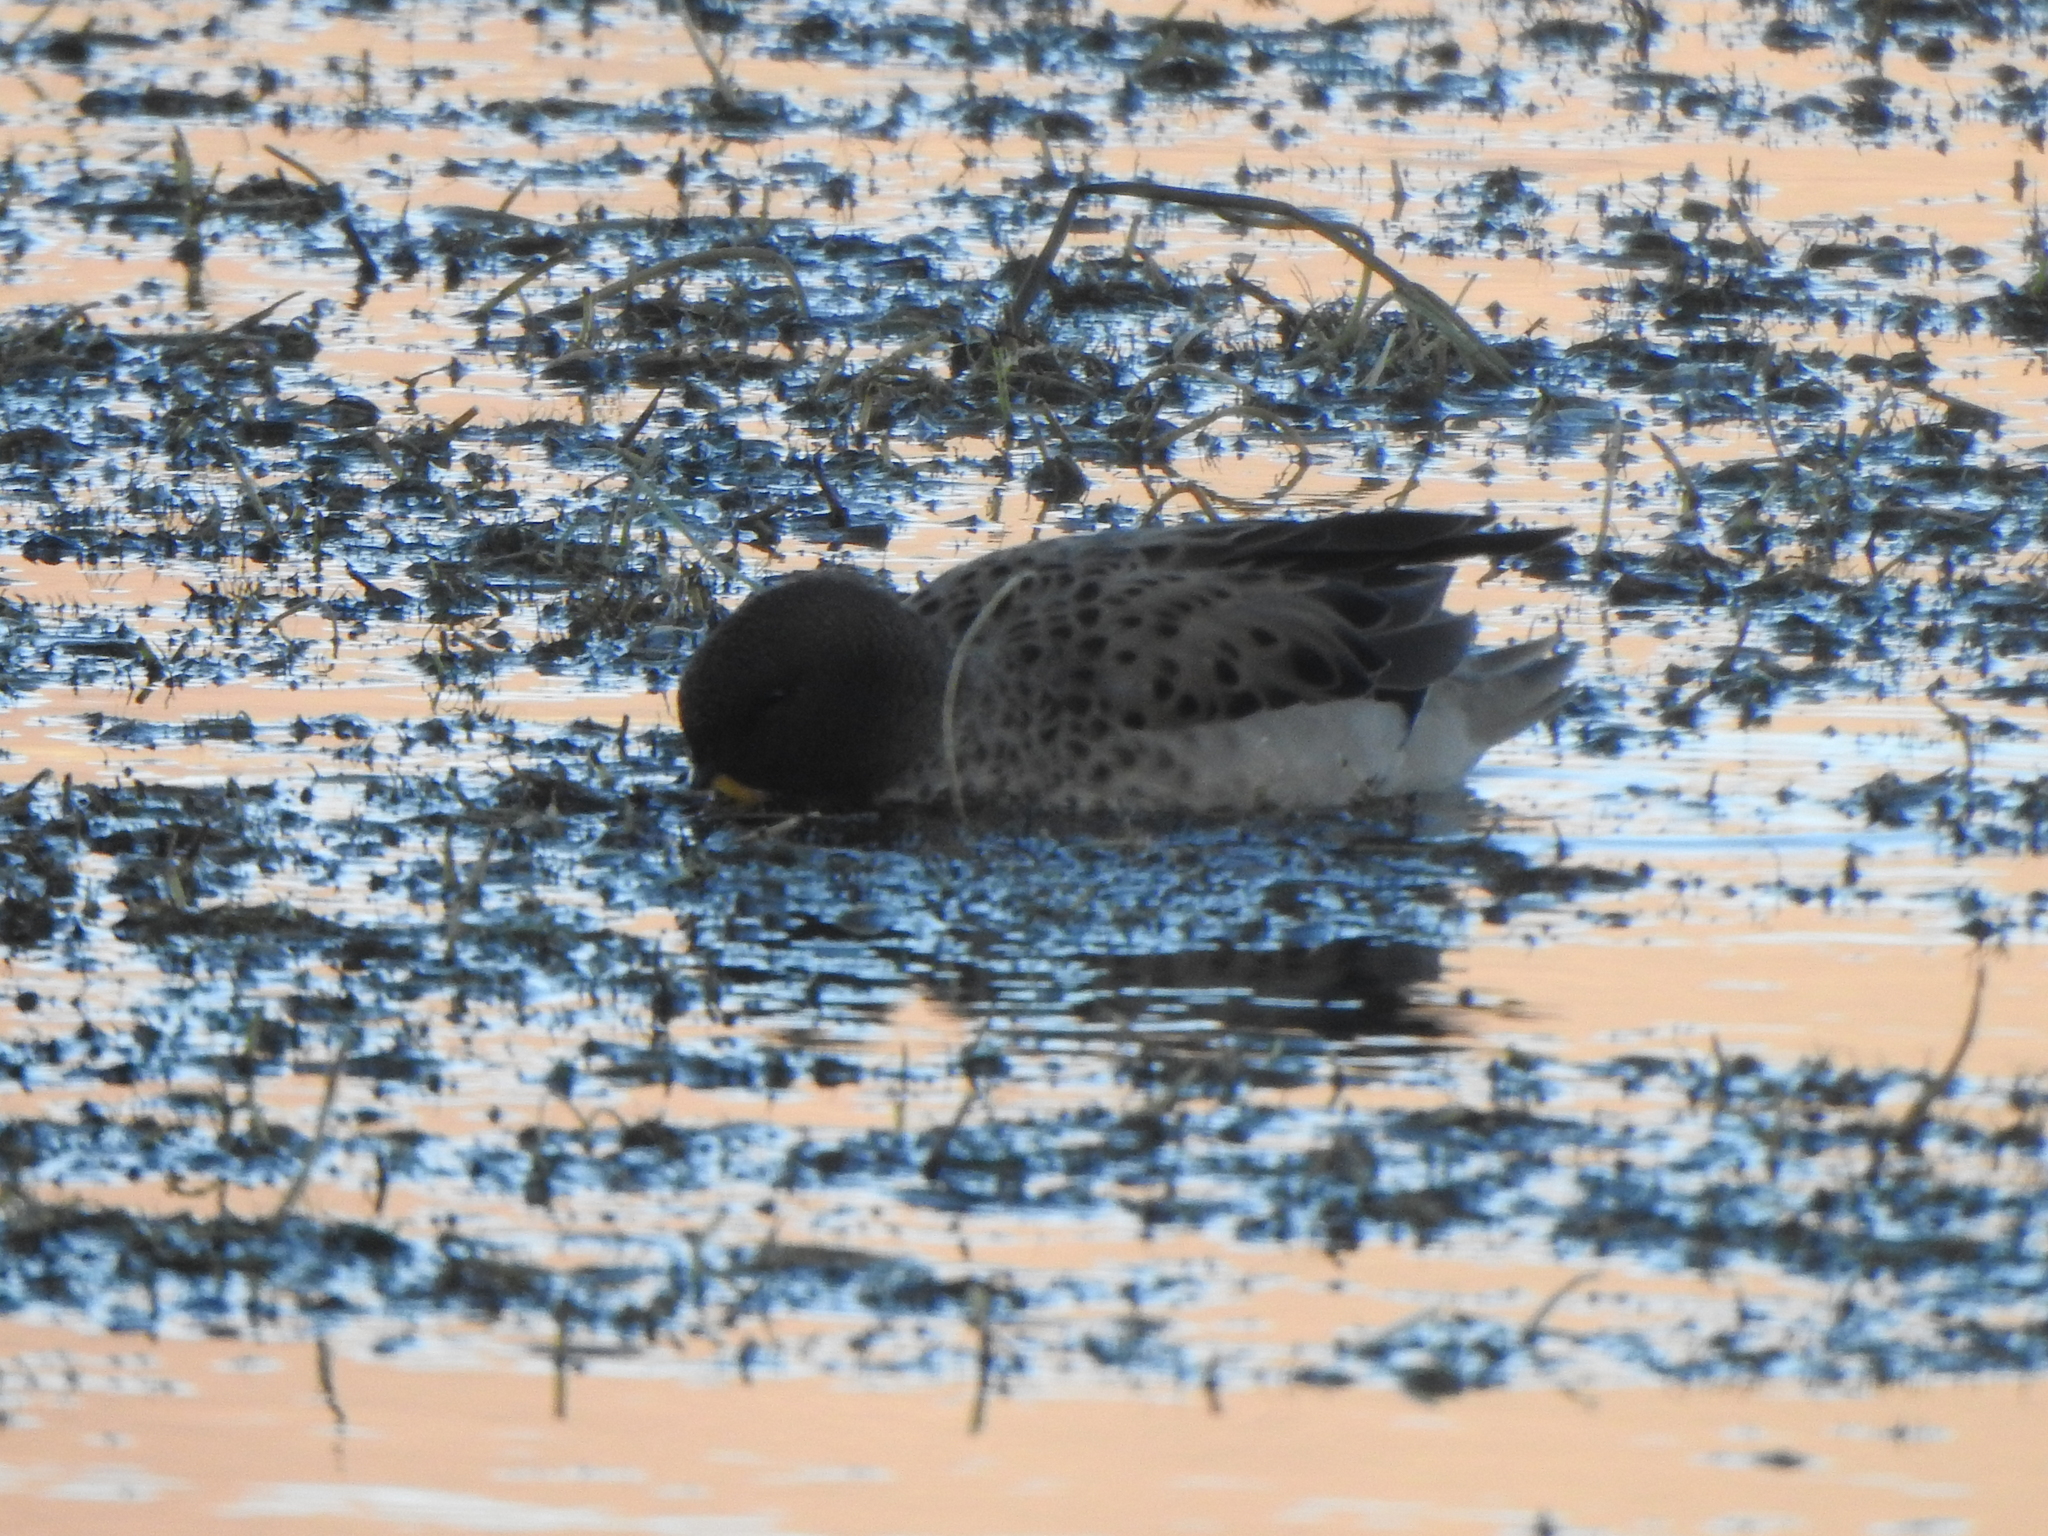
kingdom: Animalia
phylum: Chordata
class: Aves
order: Anseriformes
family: Anatidae
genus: Anas
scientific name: Anas flavirostris
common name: Yellow-billed teal
